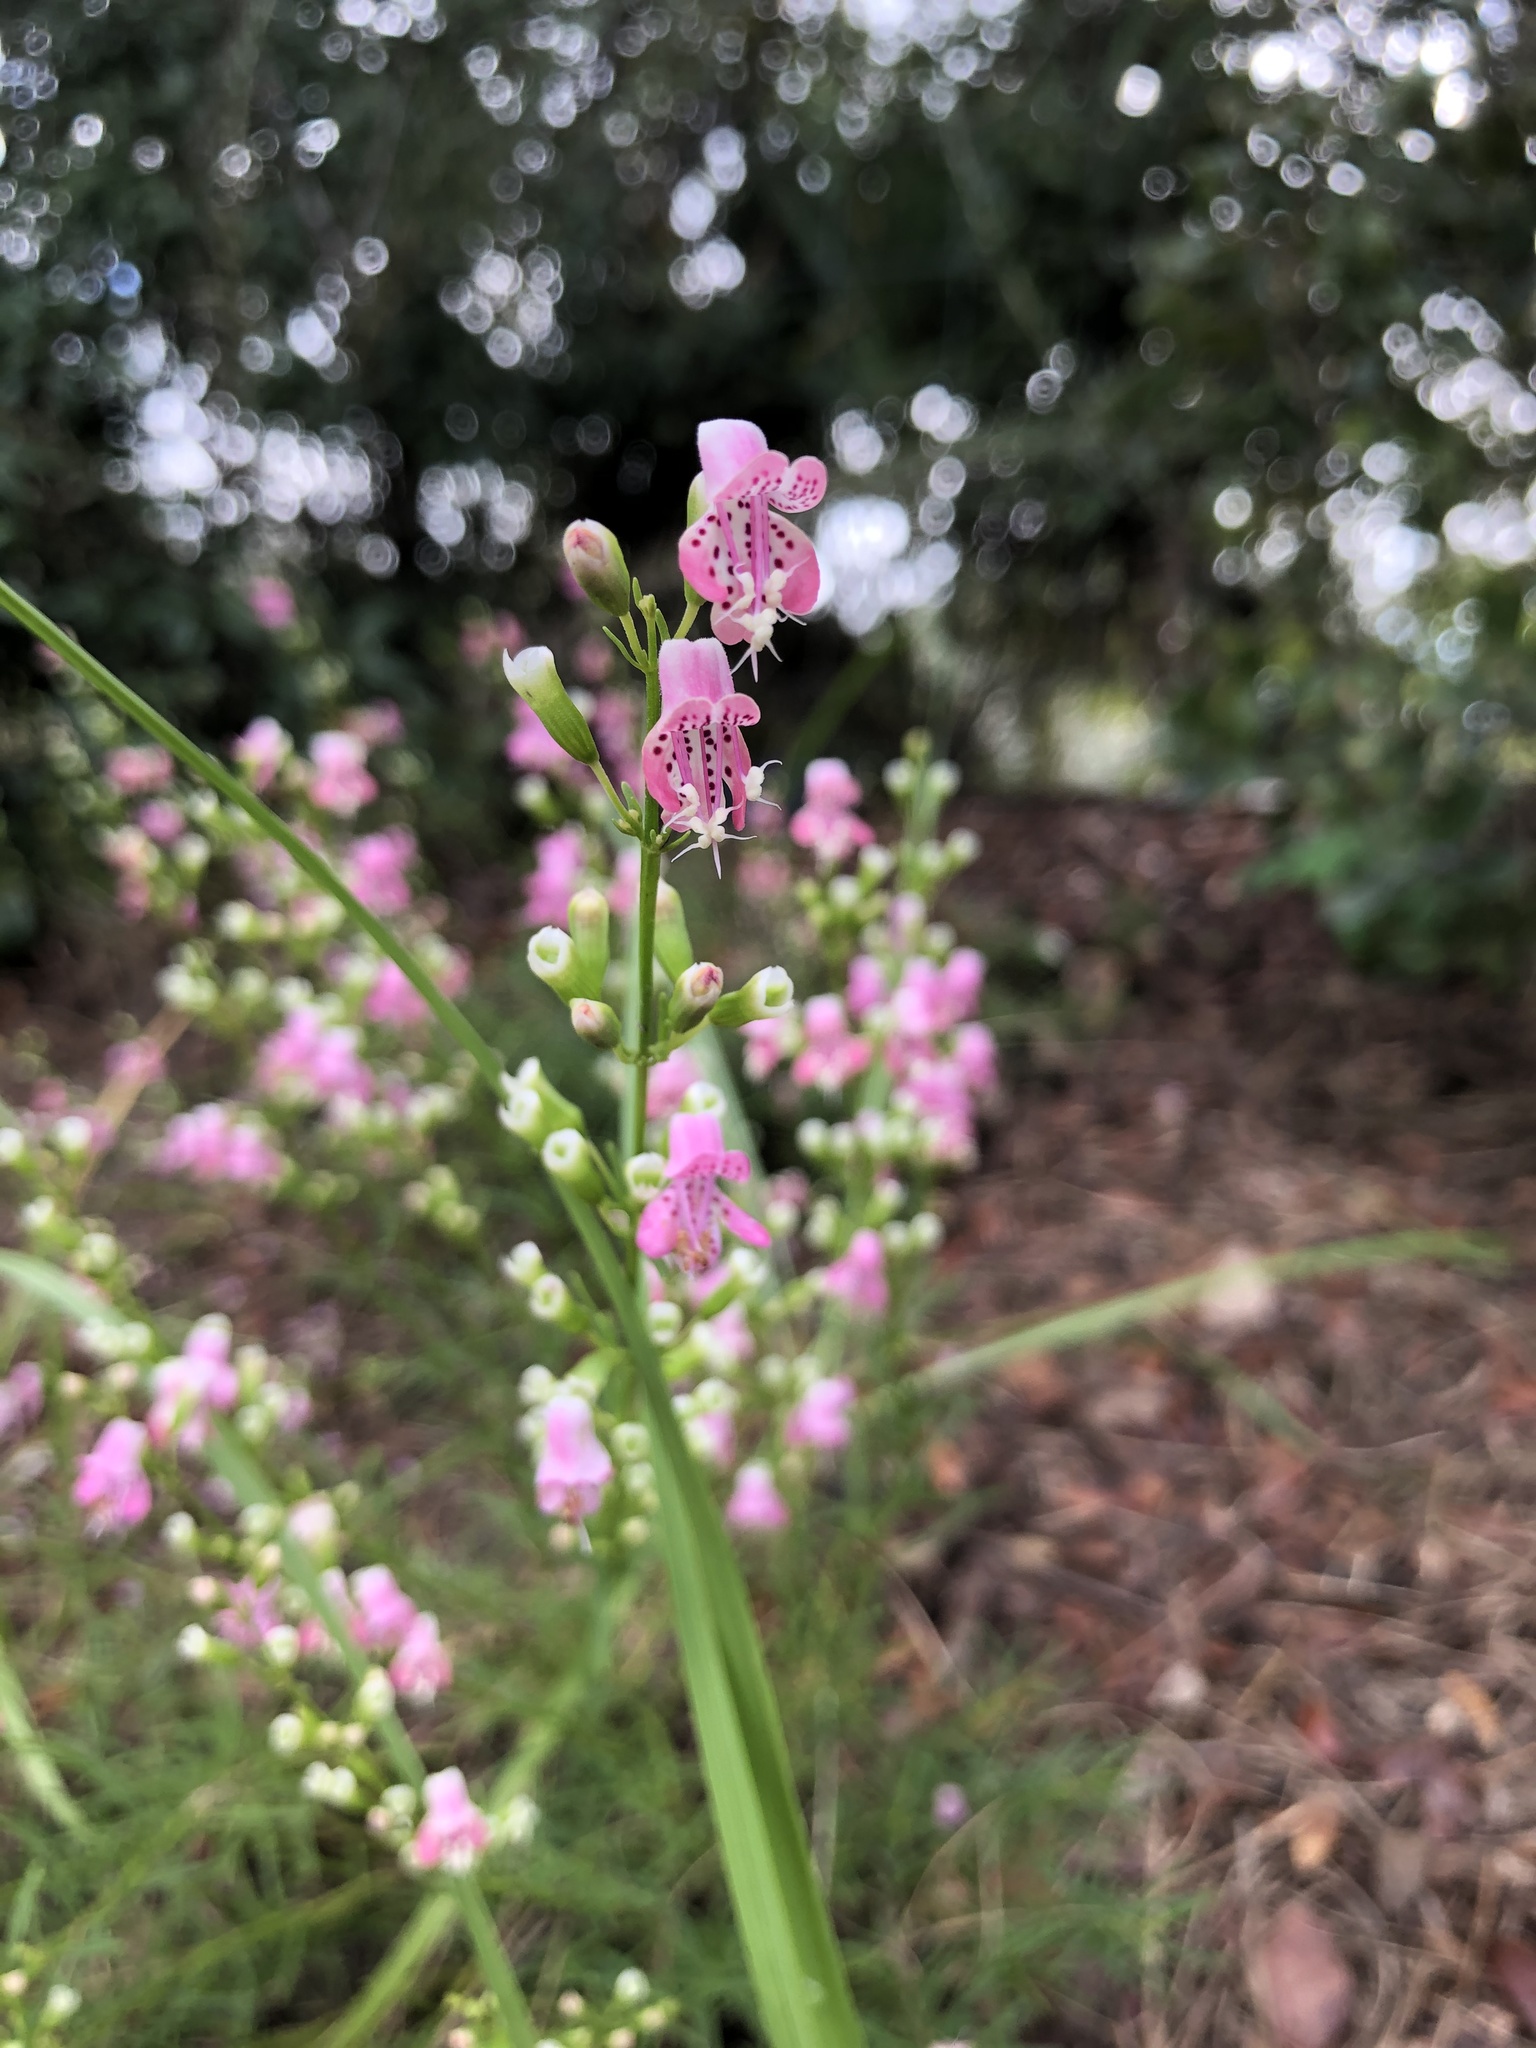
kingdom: Plantae
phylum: Tracheophyta
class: Magnoliopsida
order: Lamiales
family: Lamiaceae
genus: Dicerandra
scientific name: Dicerandra frutescens
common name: Scrub-mint
